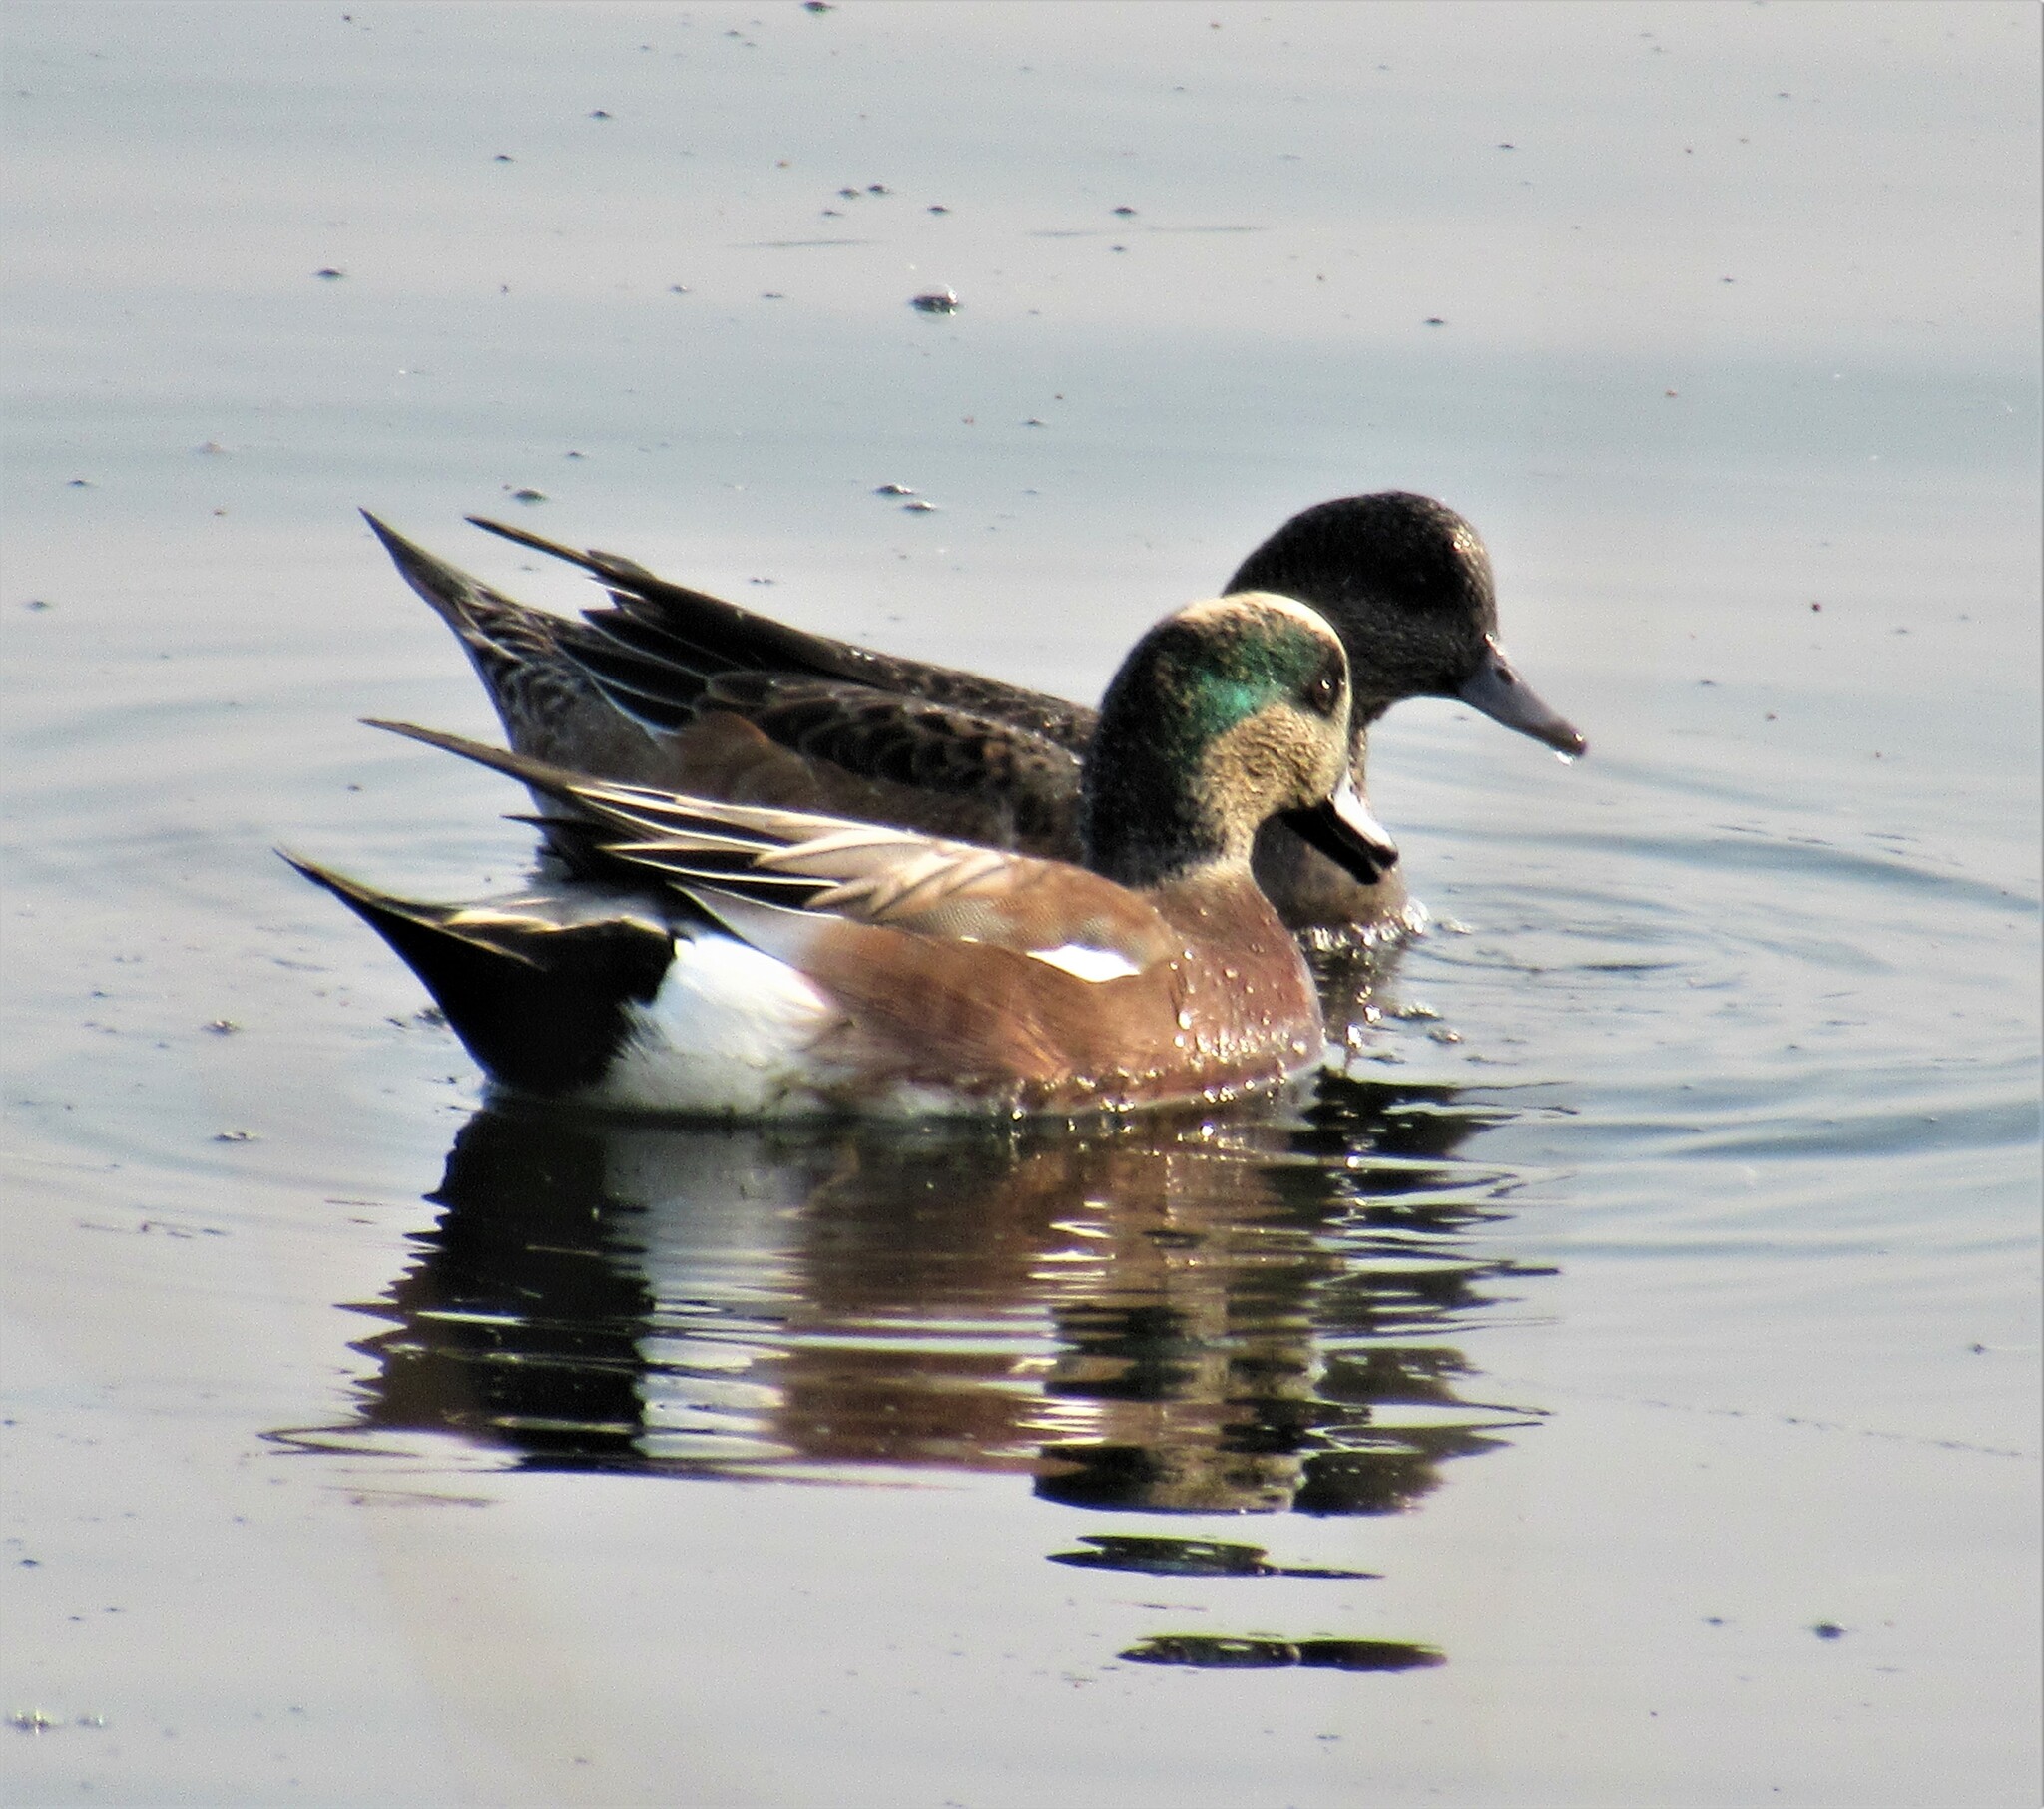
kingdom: Animalia
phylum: Chordata
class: Aves
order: Anseriformes
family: Anatidae
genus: Mareca
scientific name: Mareca americana
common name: American wigeon
